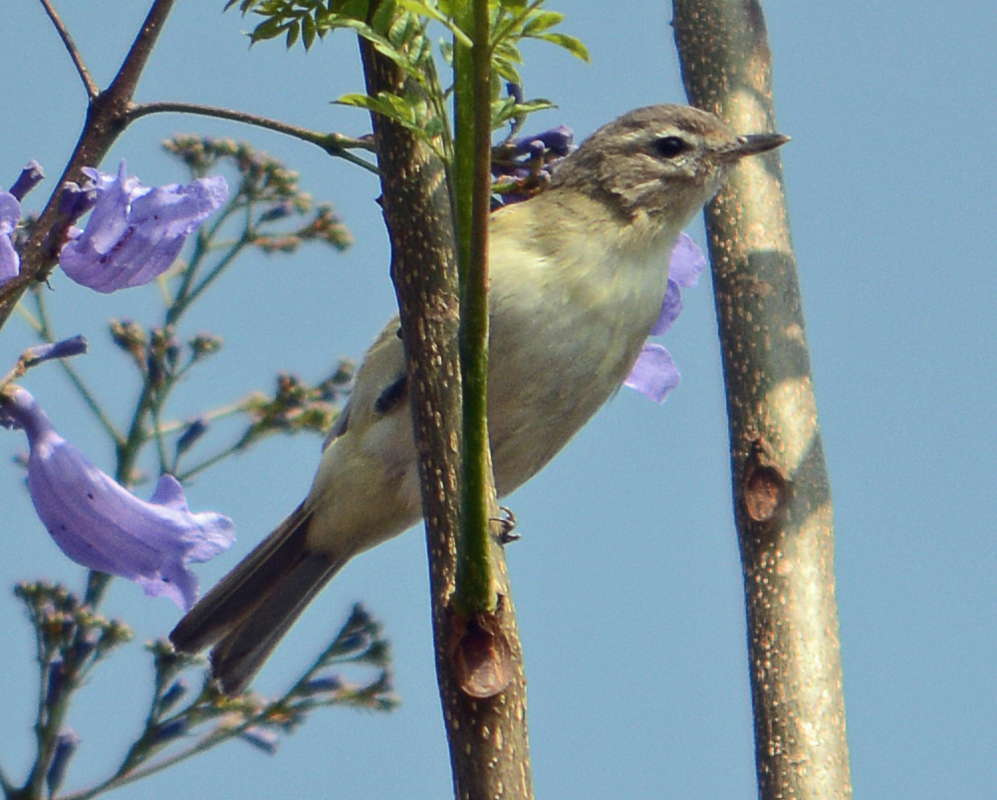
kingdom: Animalia
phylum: Chordata
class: Aves
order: Passeriformes
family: Vireonidae
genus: Vireo
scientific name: Vireo gilvus
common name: Warbling vireo
